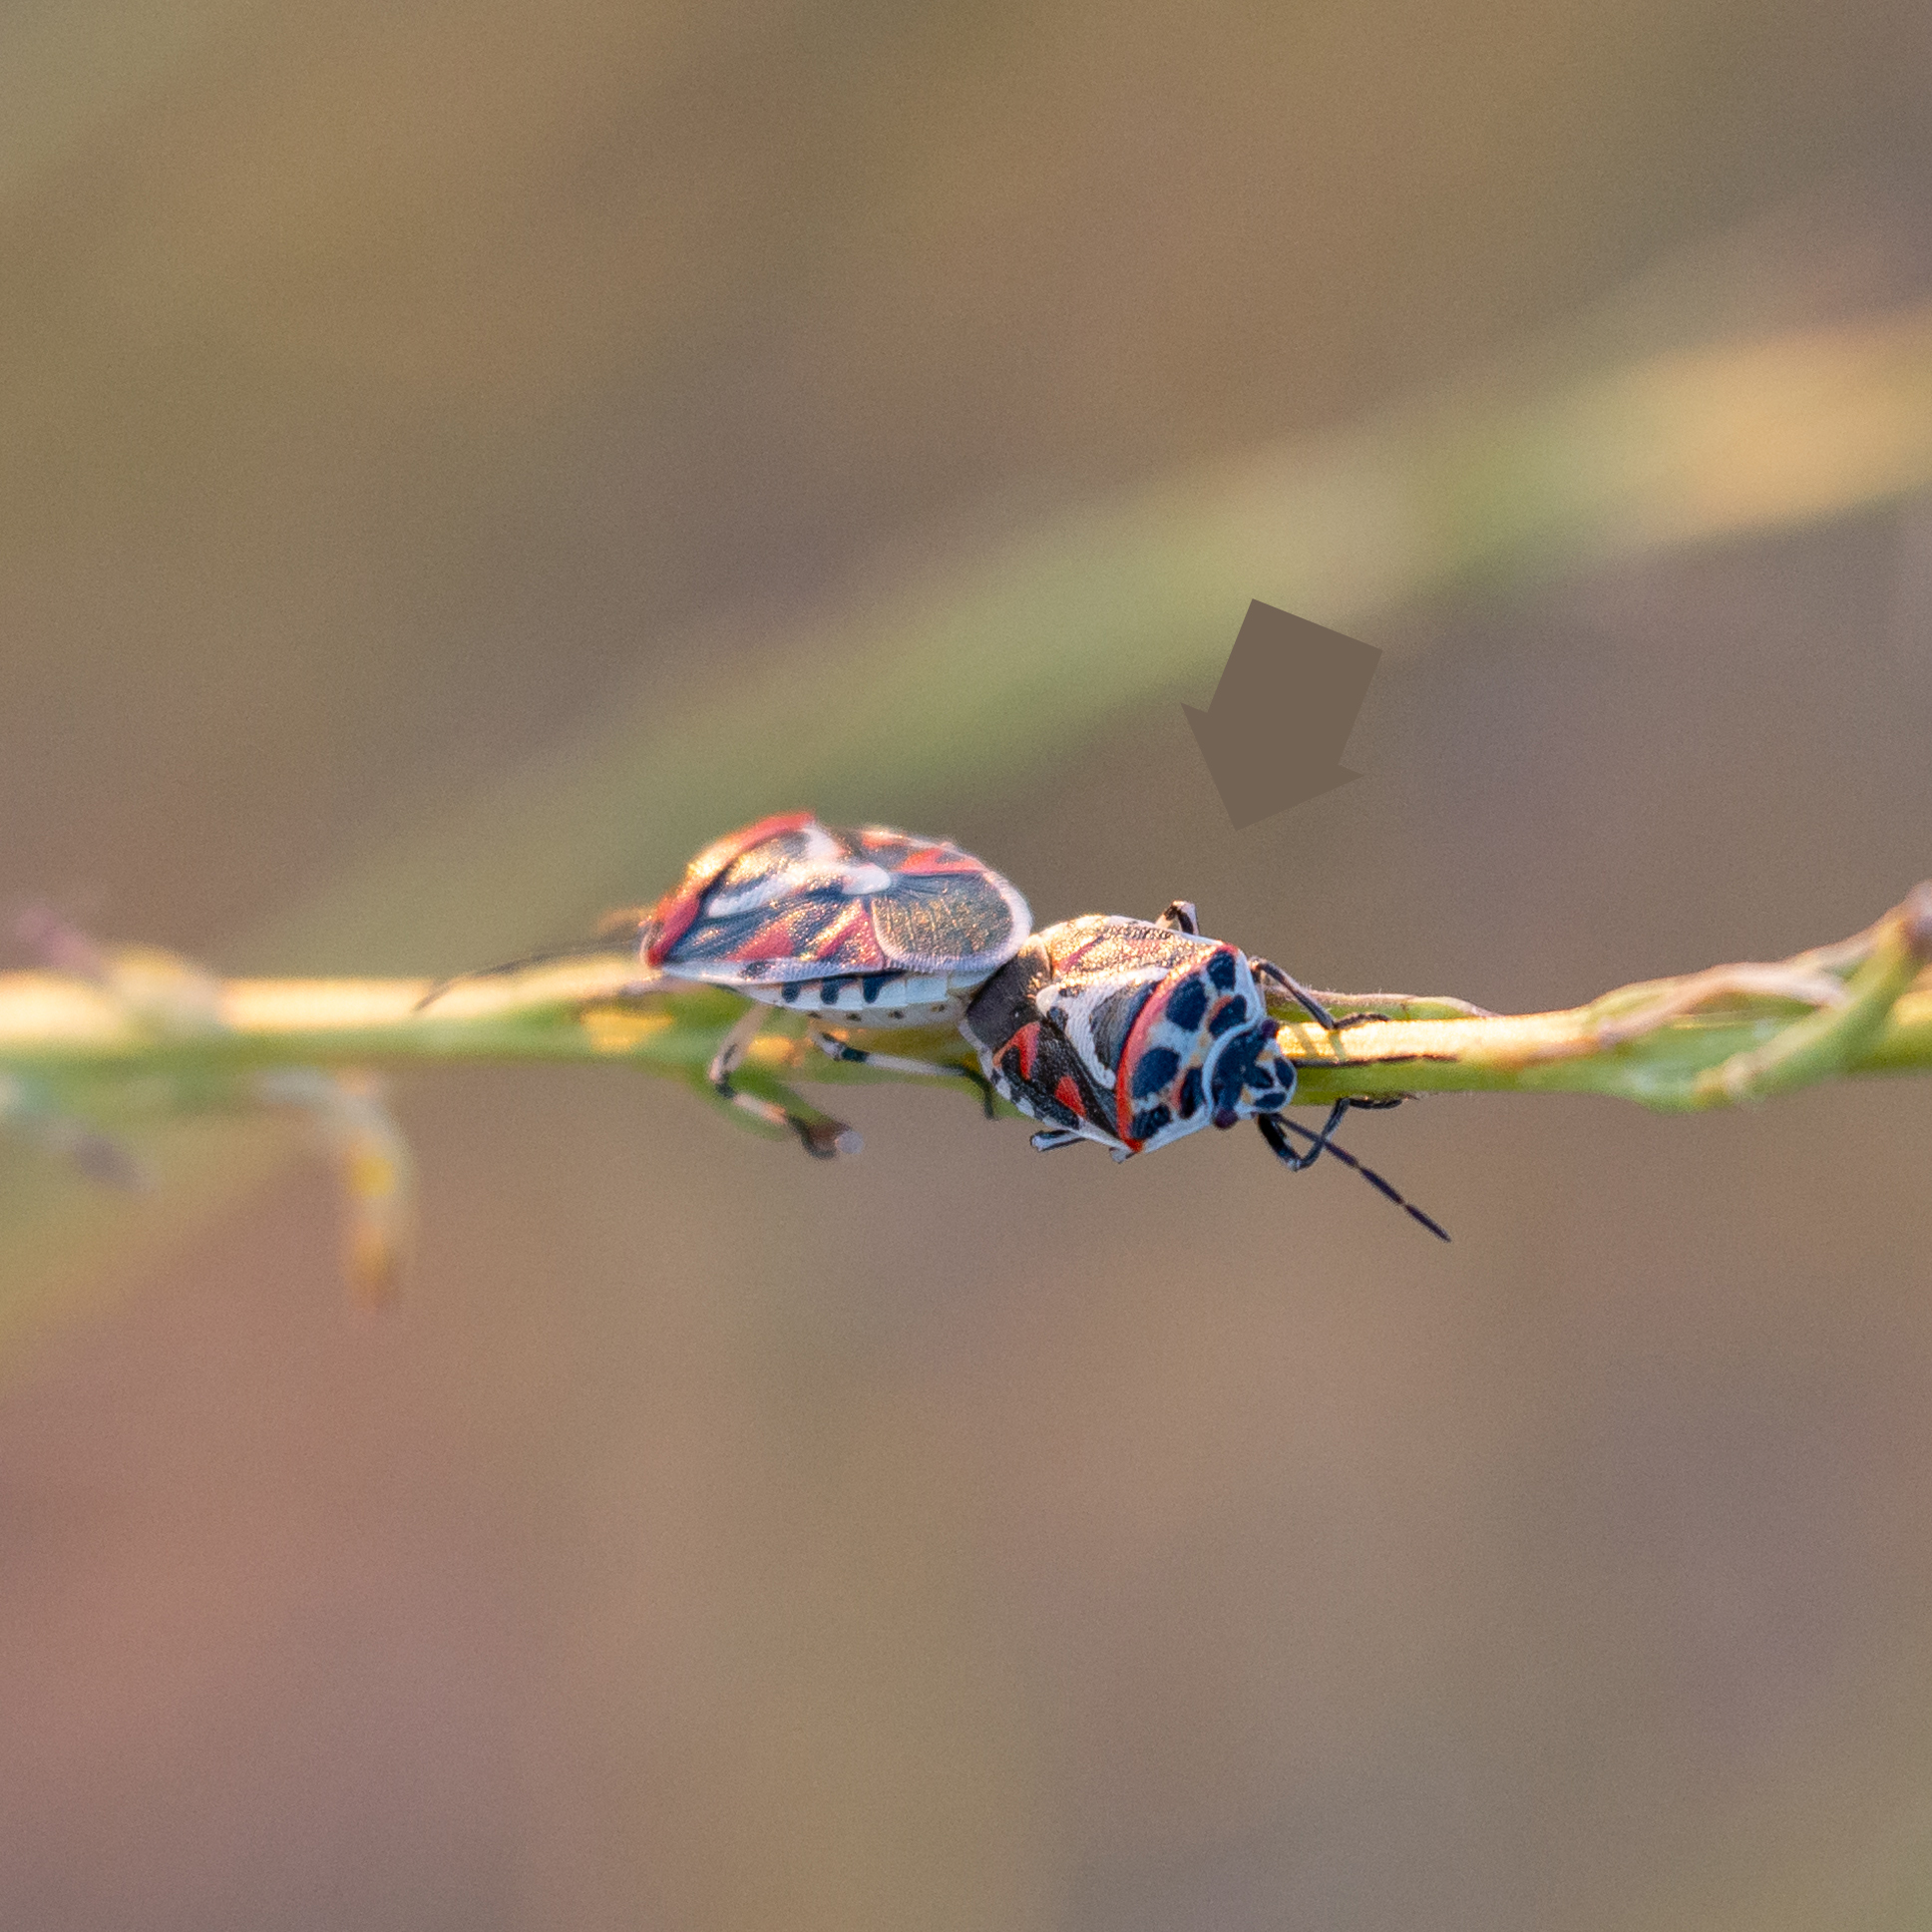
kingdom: Animalia
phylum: Arthropoda
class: Insecta
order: Hemiptera
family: Pentatomidae
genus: Eurydema
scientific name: Eurydema ornata
